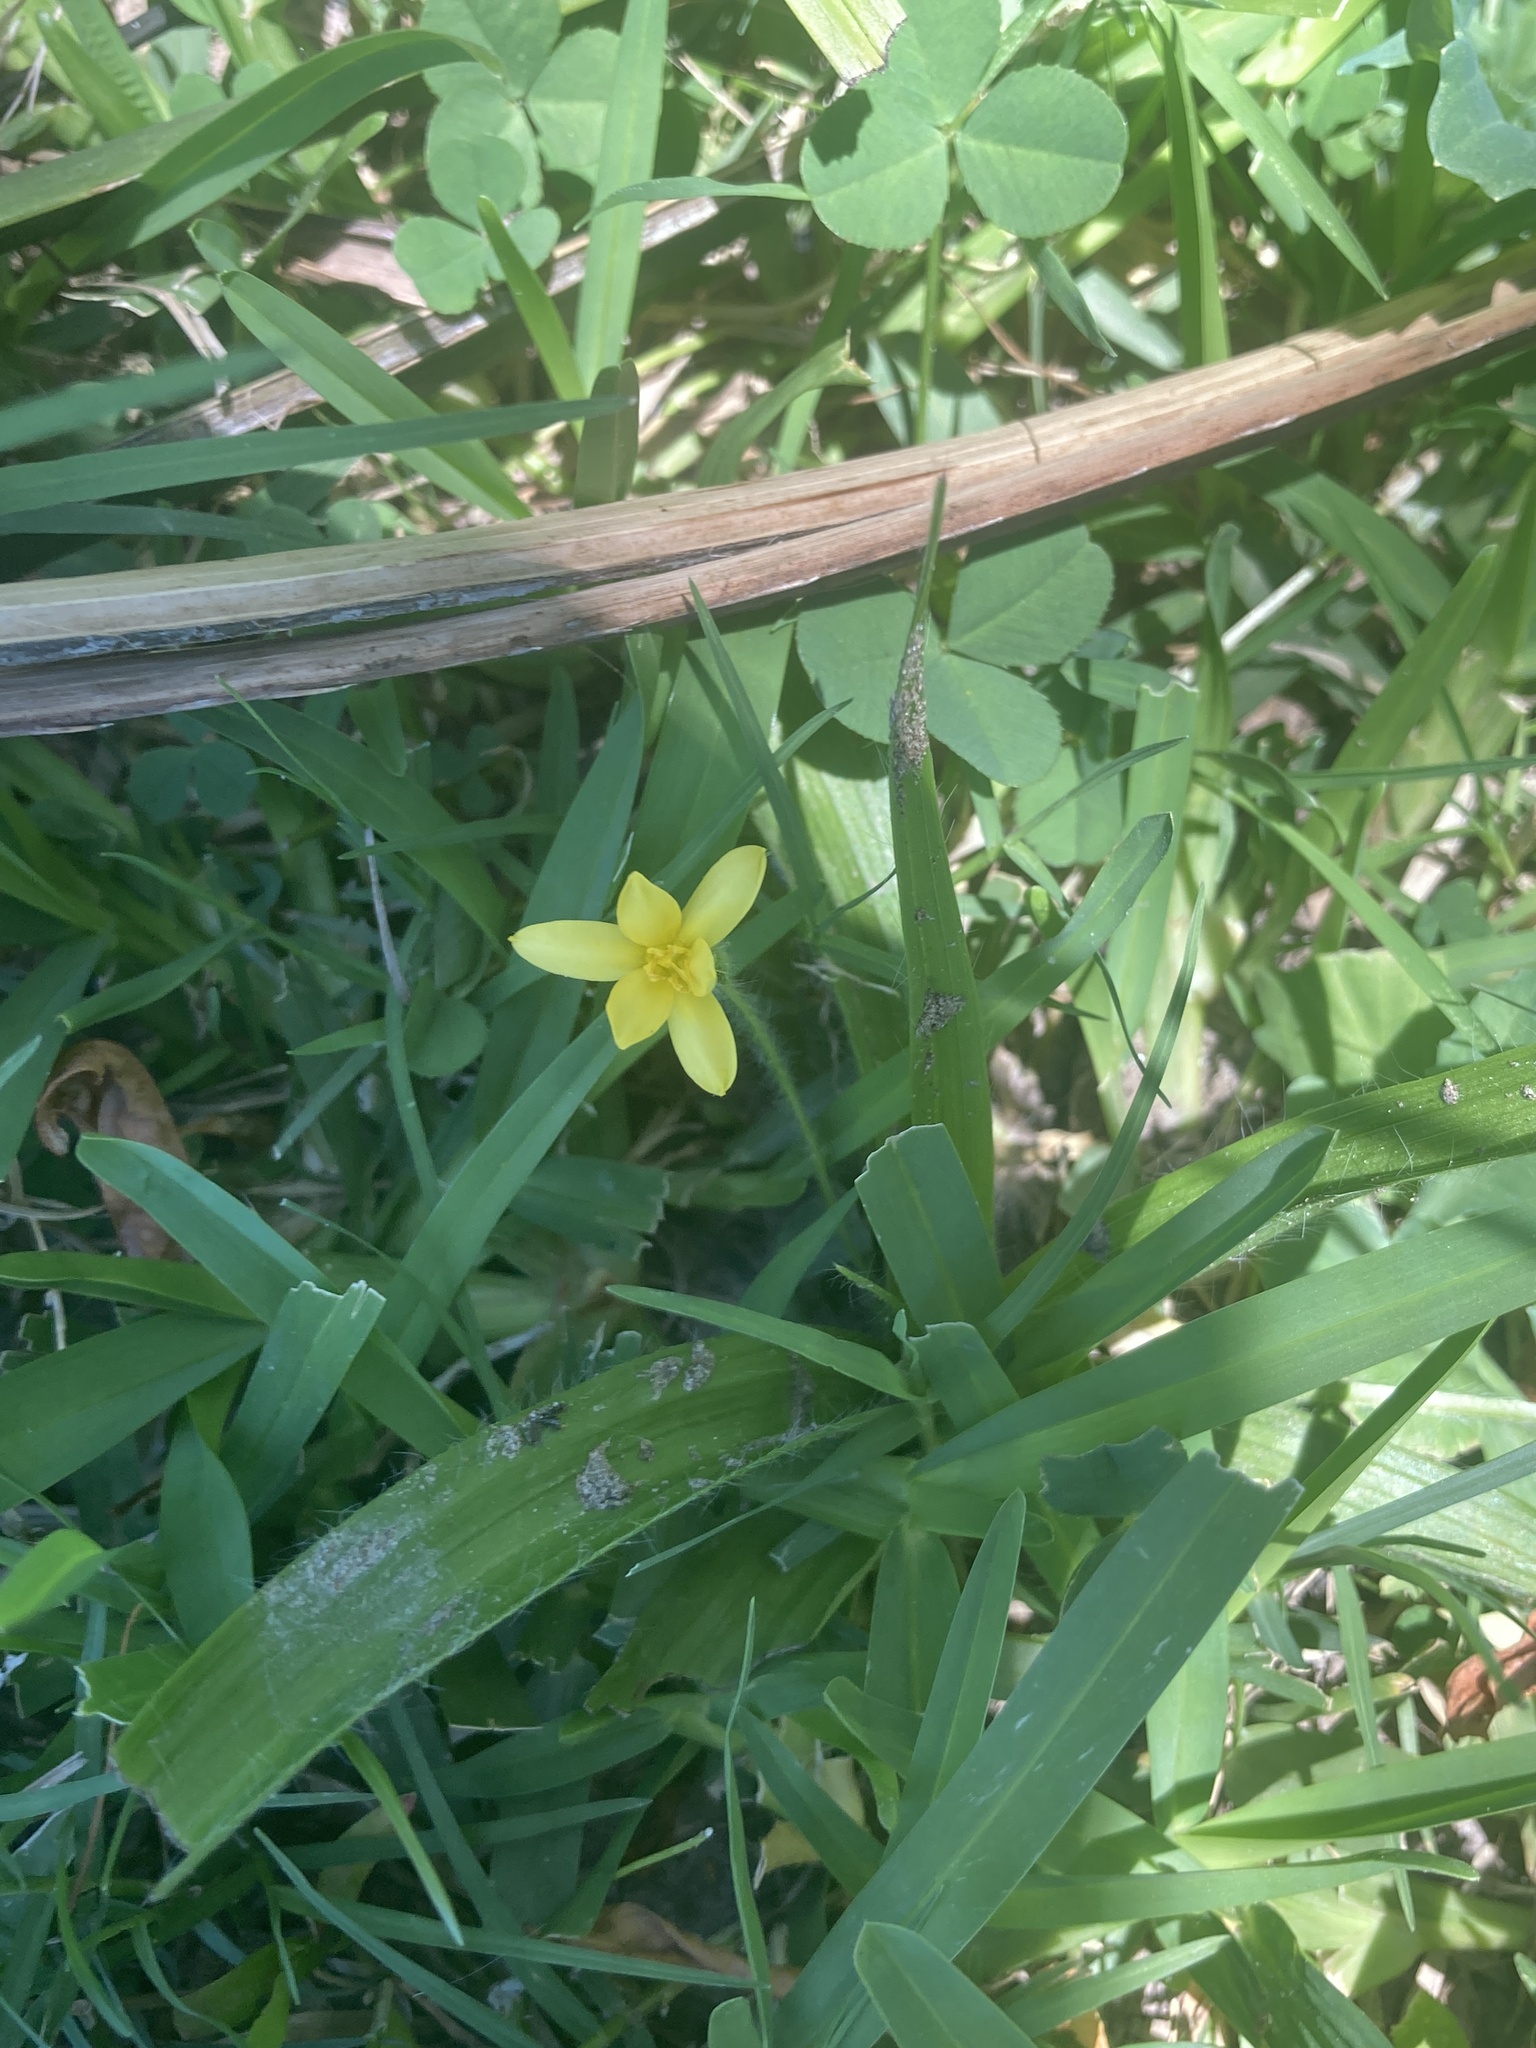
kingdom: Plantae
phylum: Tracheophyta
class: Liliopsida
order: Asparagales
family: Hypoxidaceae
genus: Hypoxis
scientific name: Hypoxis decumbens
